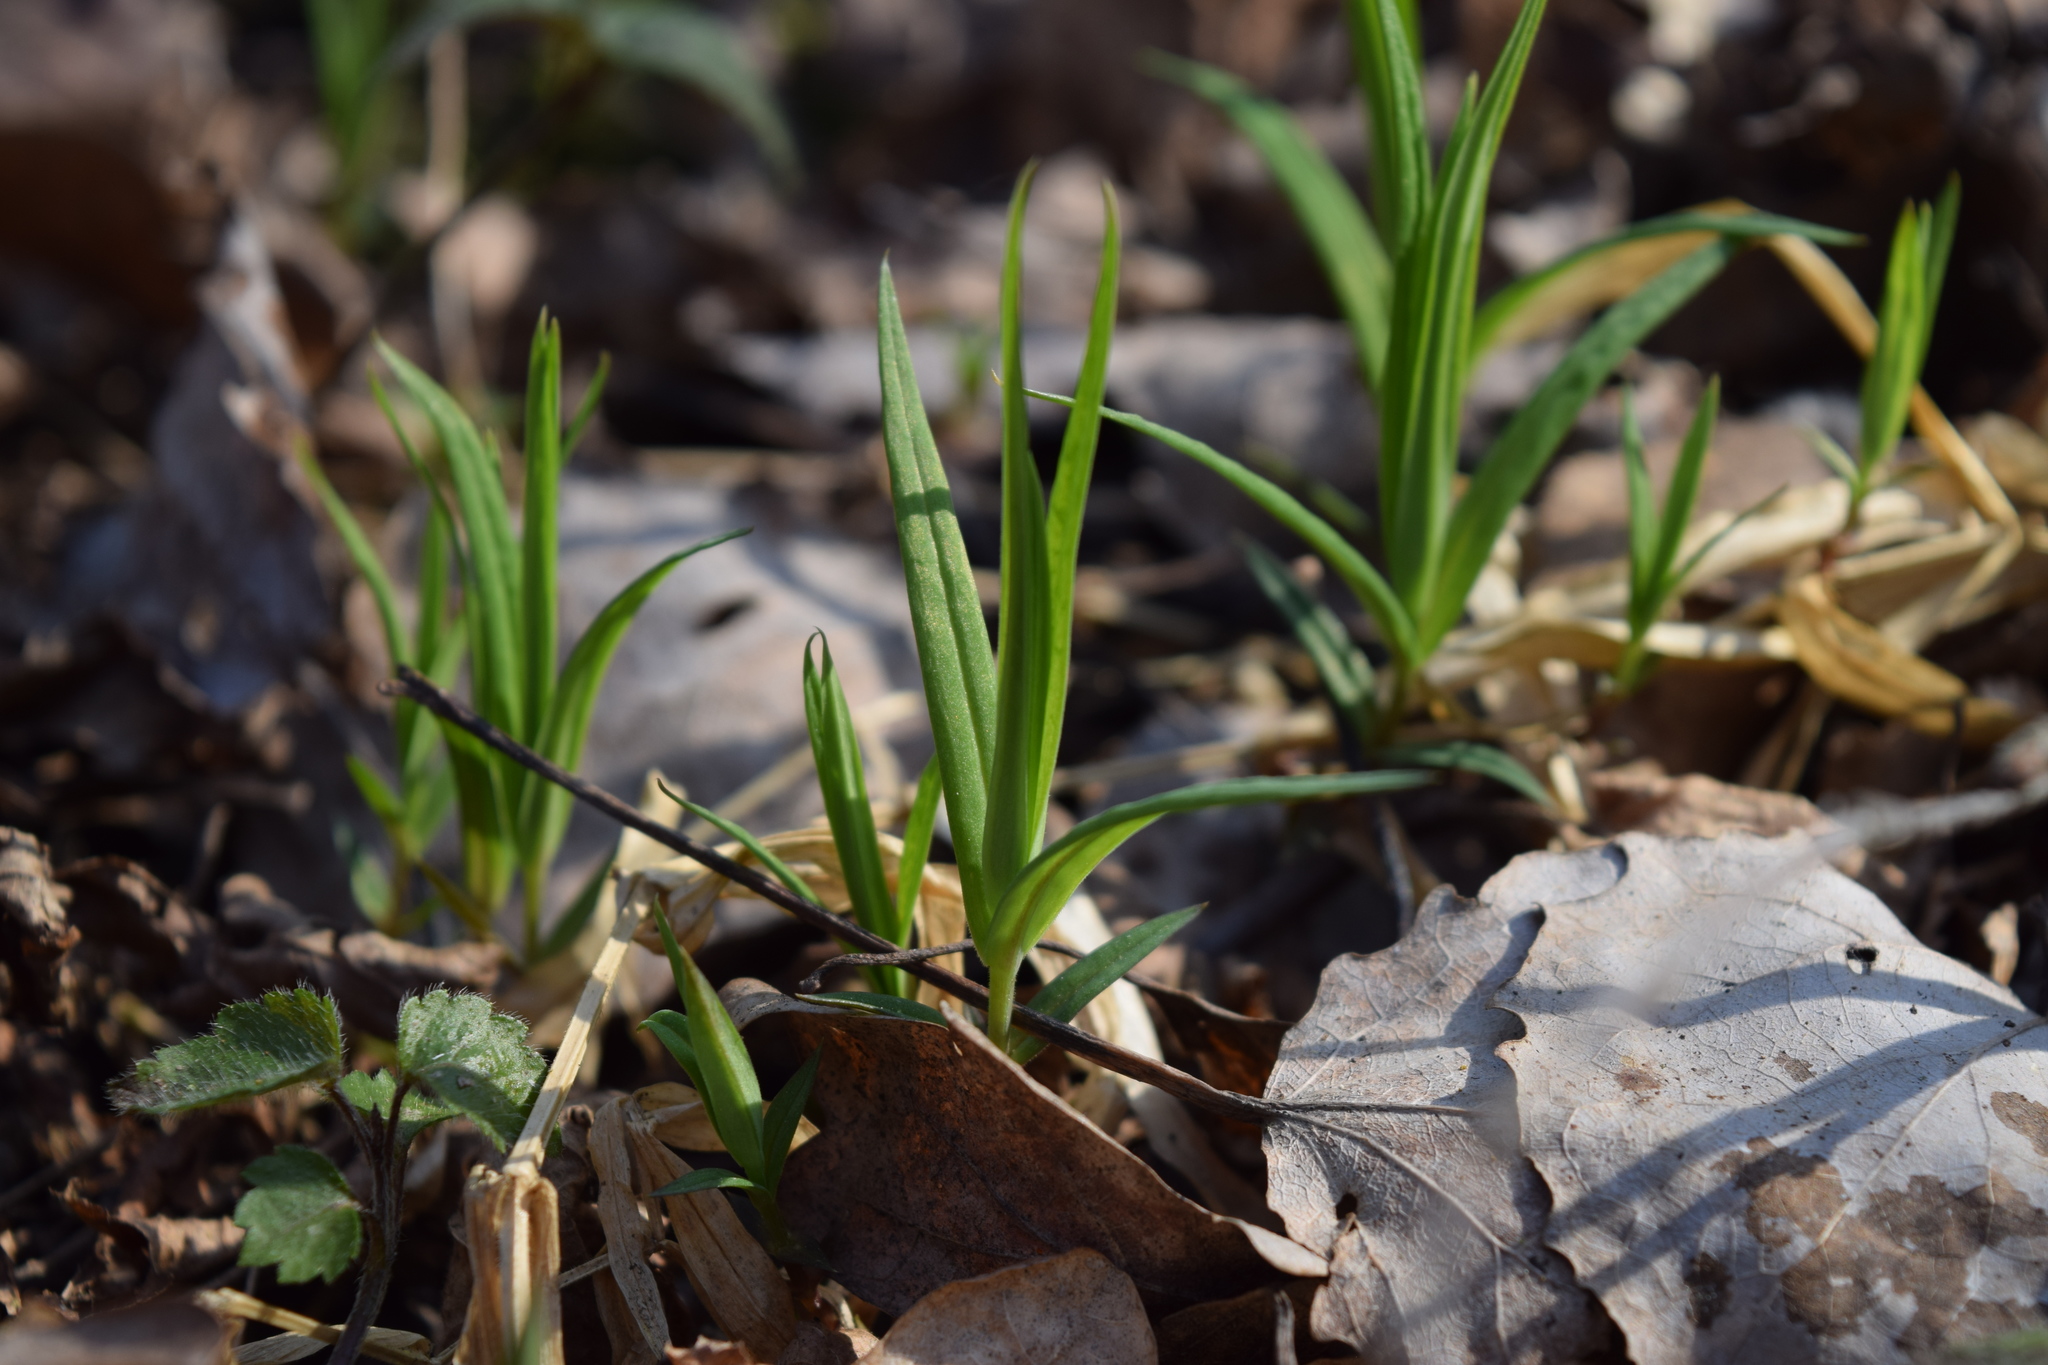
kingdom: Plantae
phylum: Tracheophyta
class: Magnoliopsida
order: Caryophyllales
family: Caryophyllaceae
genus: Rabelera
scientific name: Rabelera holostea
